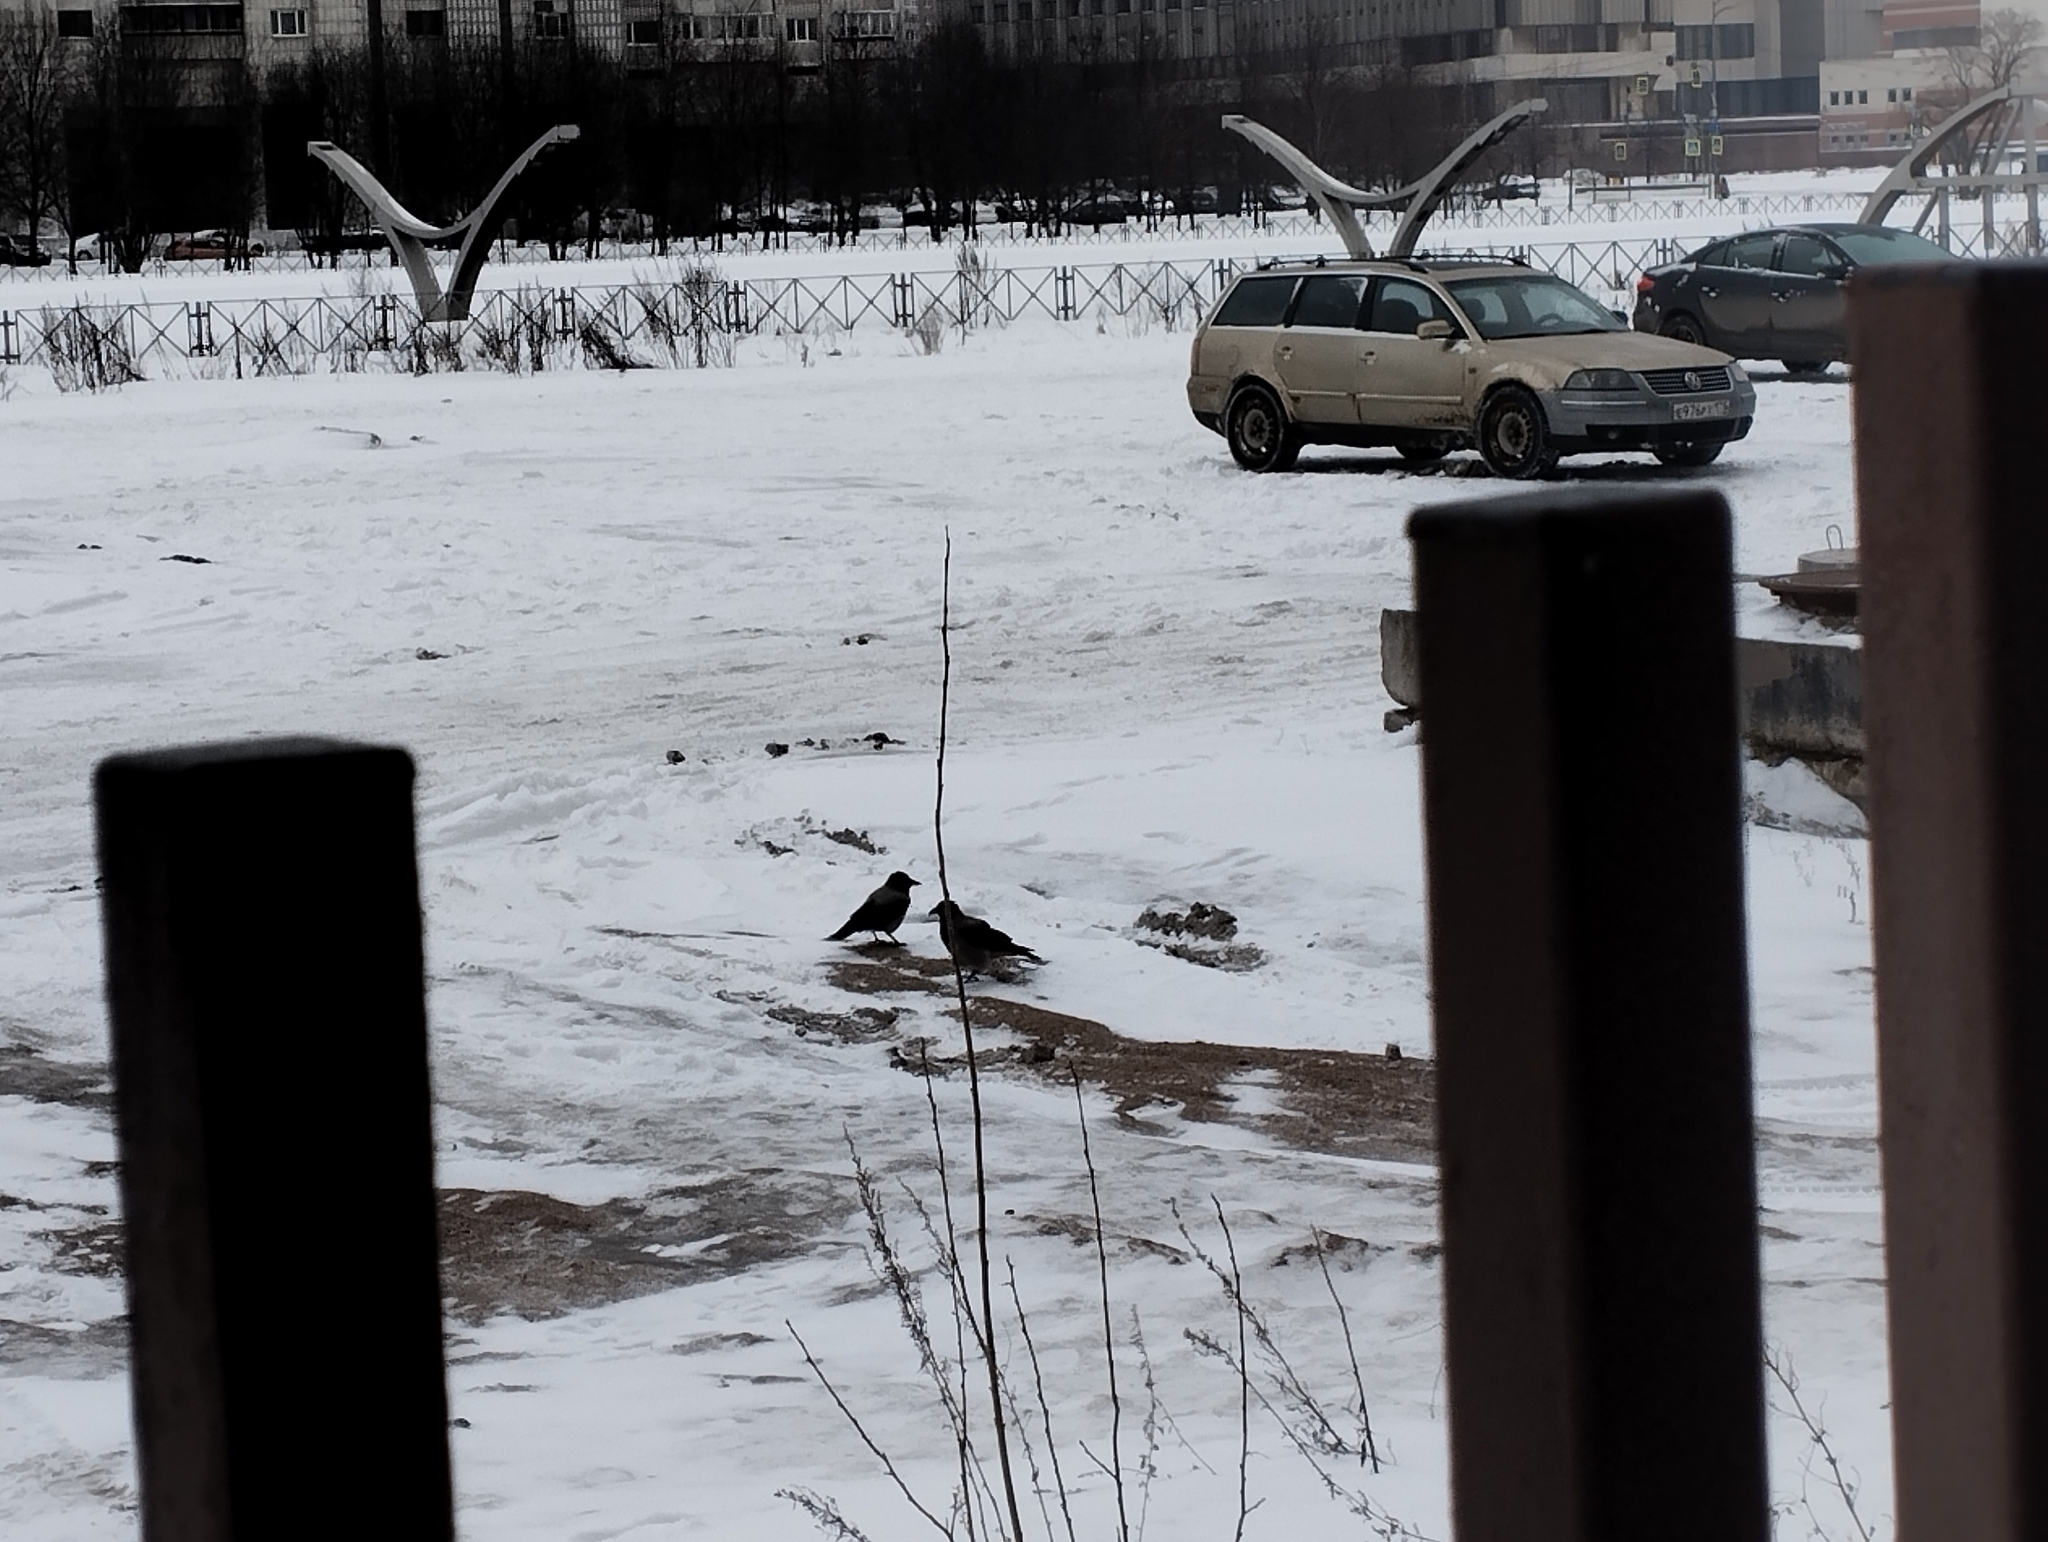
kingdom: Animalia
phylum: Chordata
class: Aves
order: Passeriformes
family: Corvidae
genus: Corvus
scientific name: Corvus cornix
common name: Hooded crow
